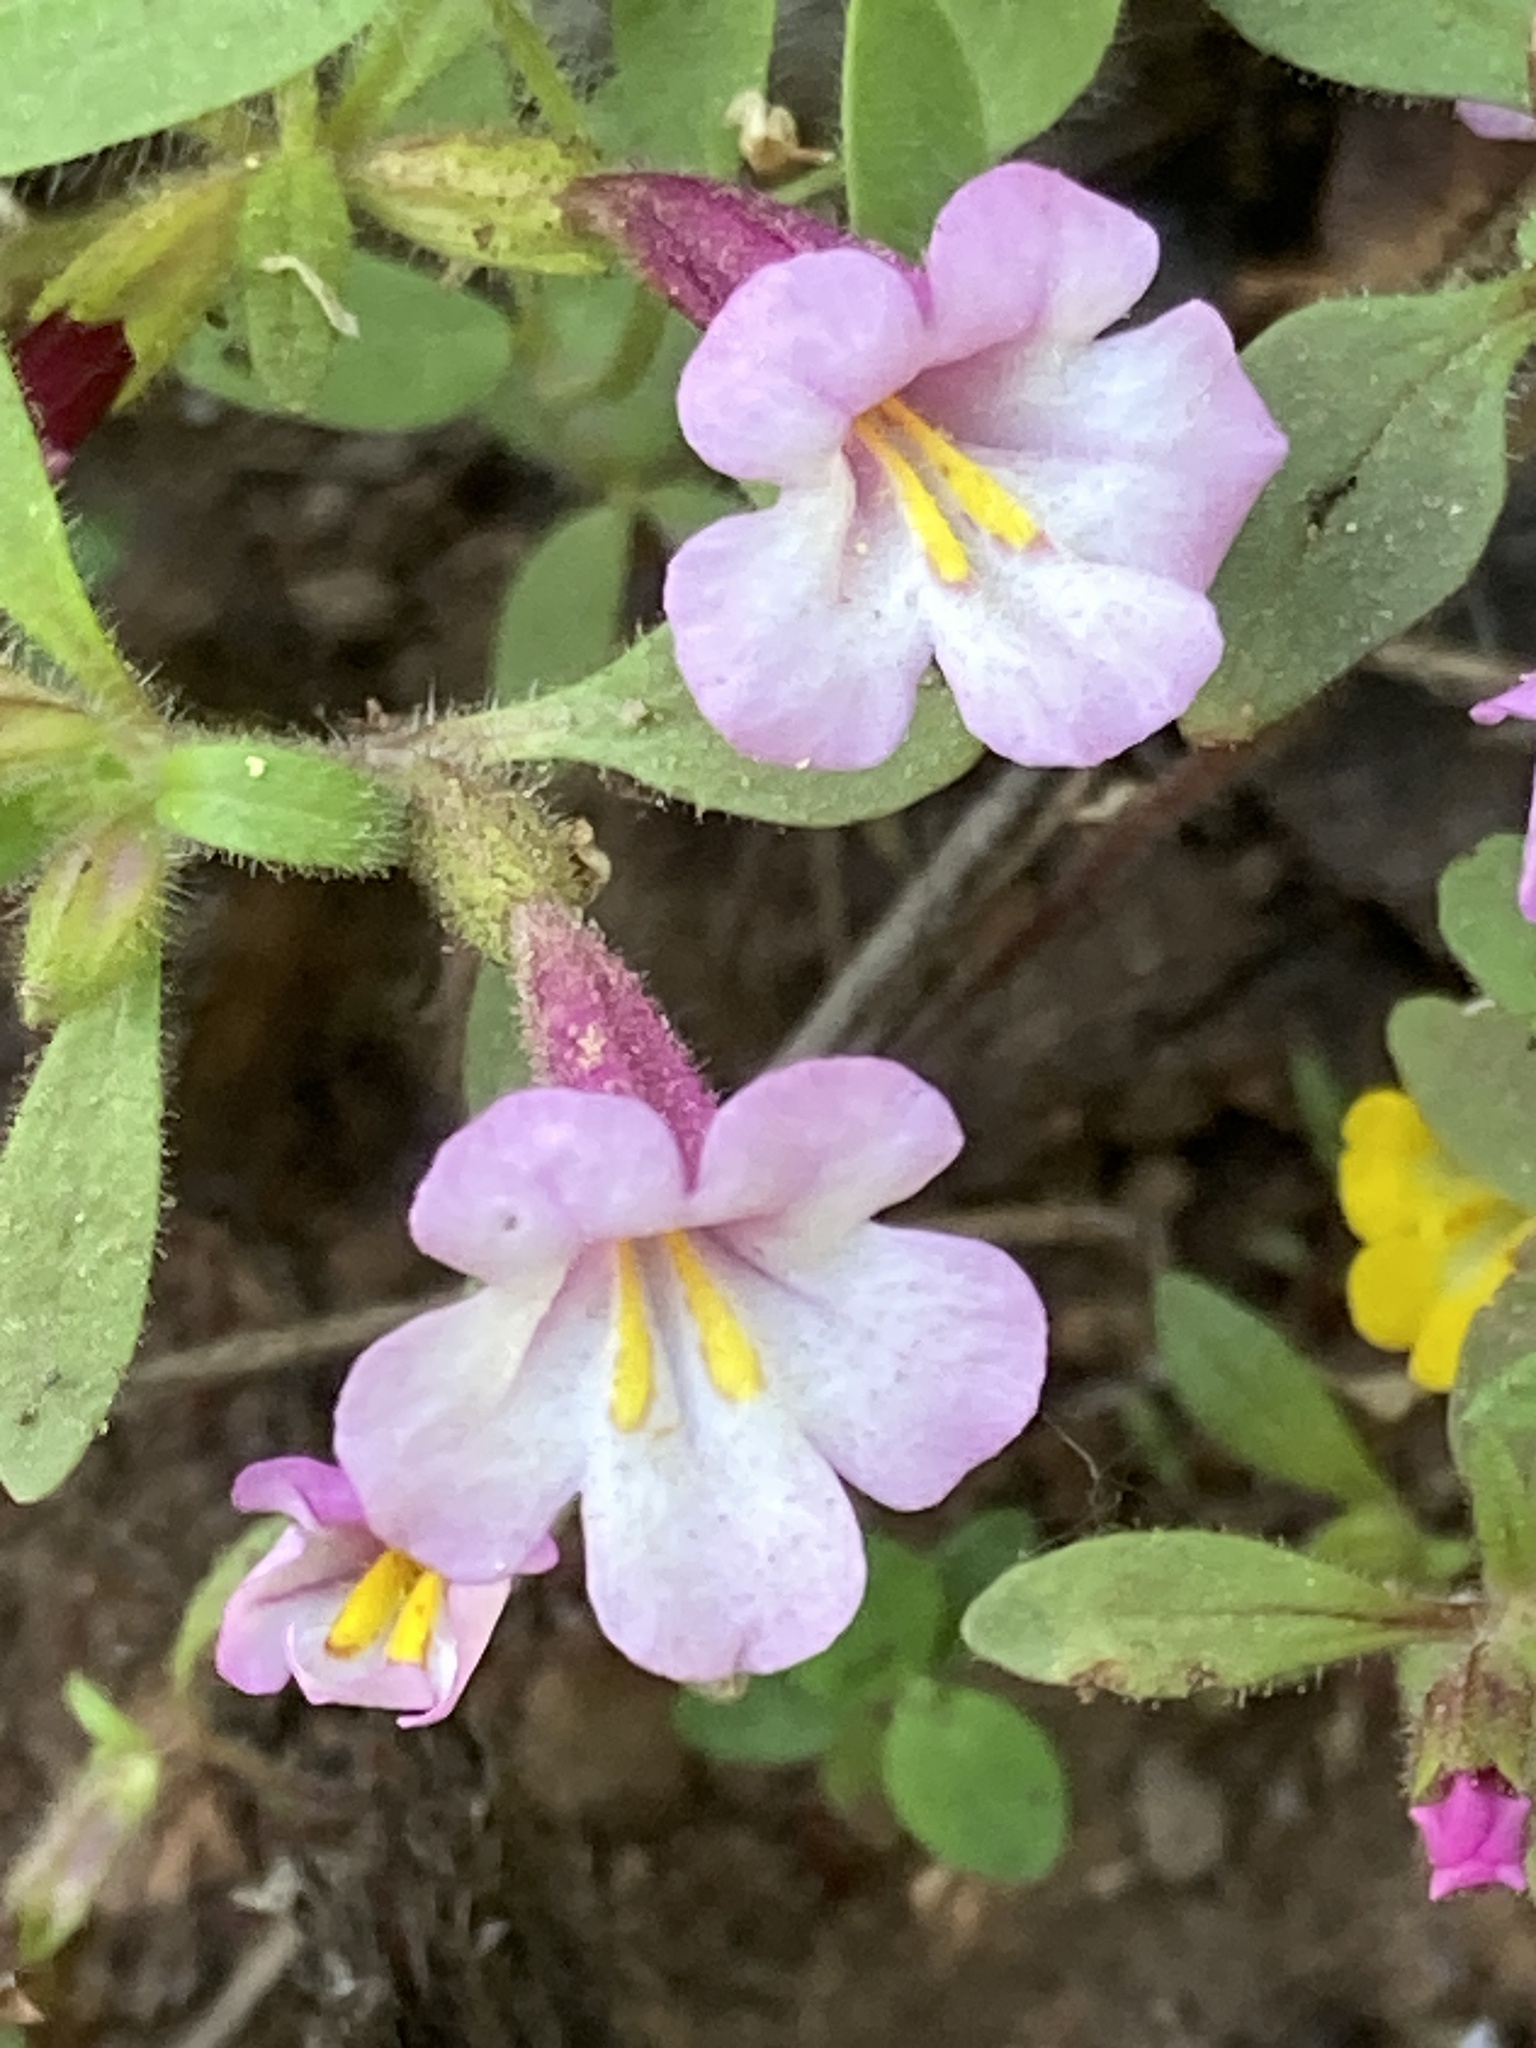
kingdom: Plantae
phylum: Tracheophyta
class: Magnoliopsida
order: Lamiales
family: Phrymaceae
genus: Diplacus
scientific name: Diplacus torreyi
